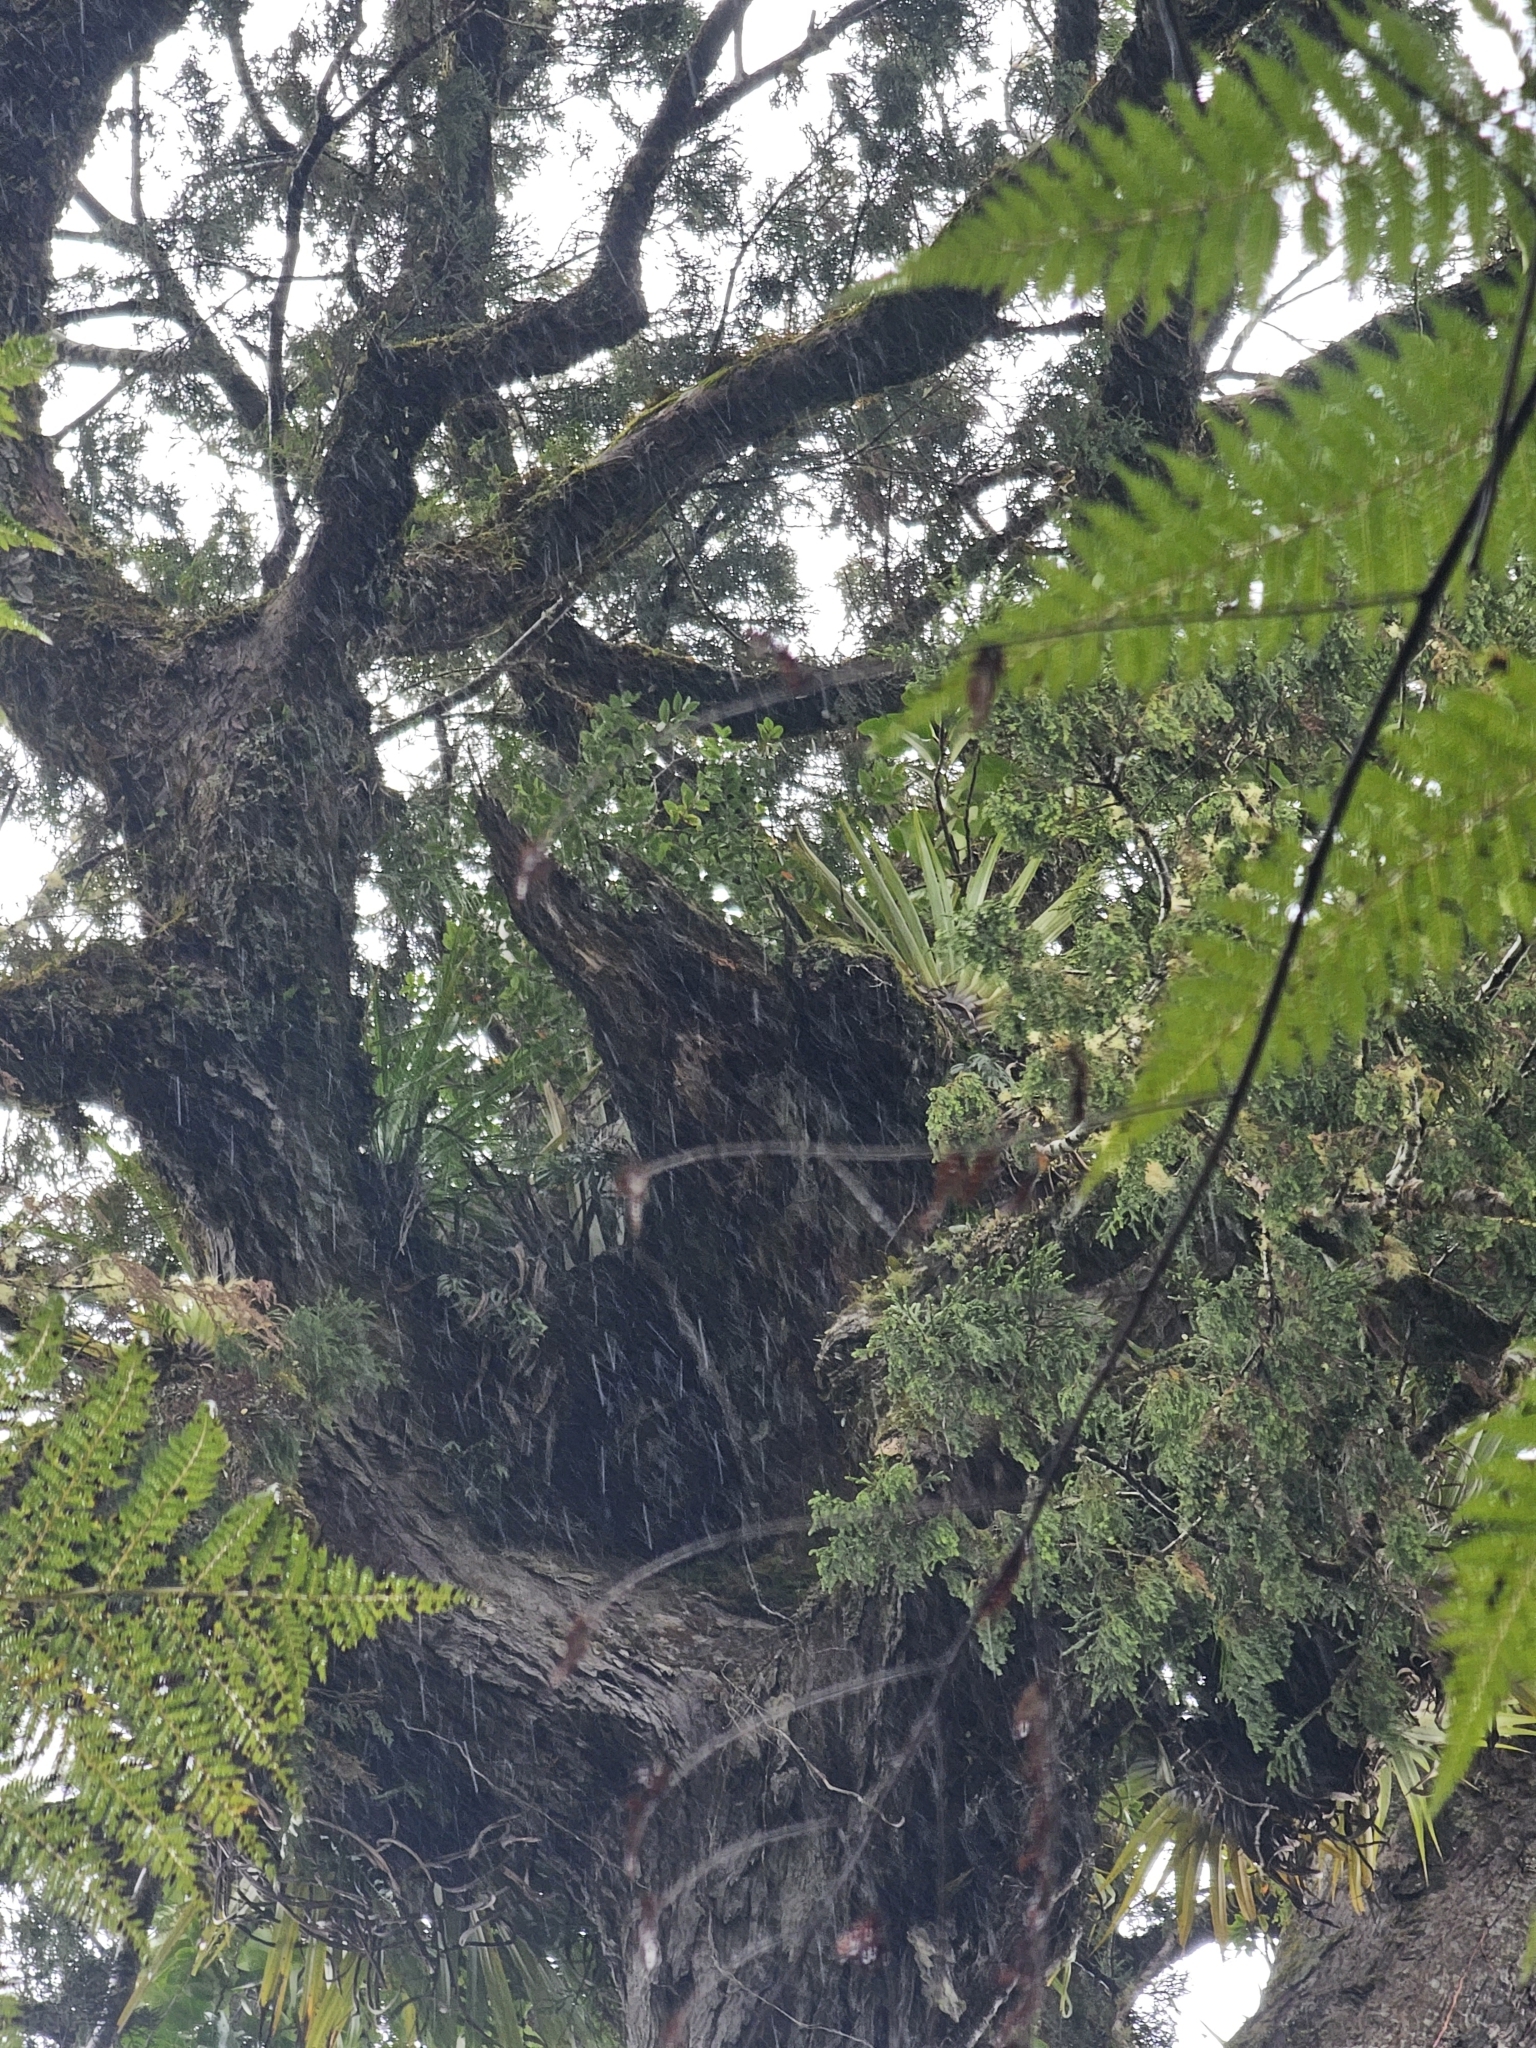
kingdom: Plantae
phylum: Tracheophyta
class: Pinopsida
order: Pinales
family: Podocarpaceae
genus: Dacrydium
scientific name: Dacrydium cupressinum
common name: Red pine
